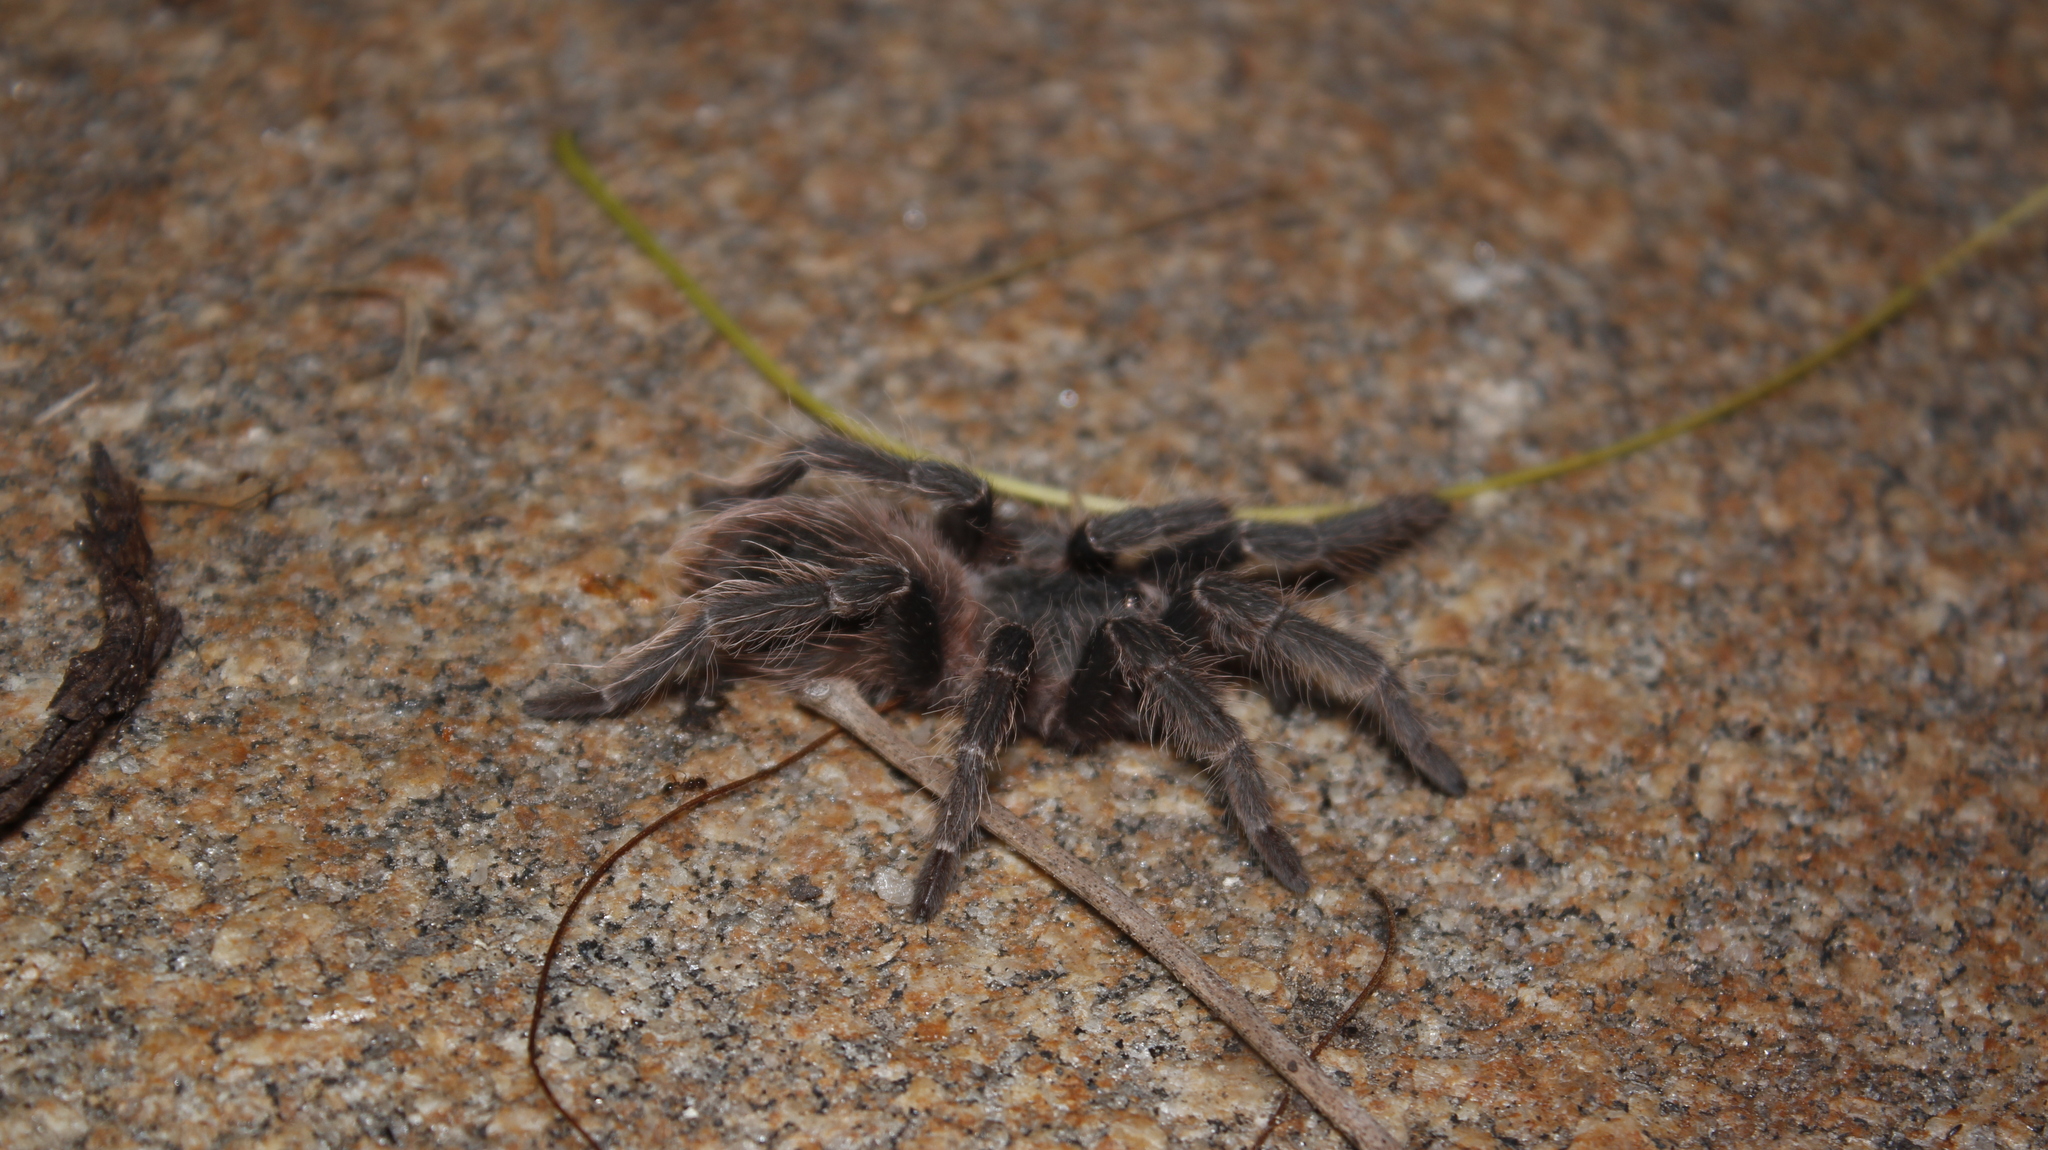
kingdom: Animalia
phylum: Arthropoda
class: Arachnida
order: Araneae
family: Theraphosidae
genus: Lasiodora
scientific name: Lasiodora parahybana
